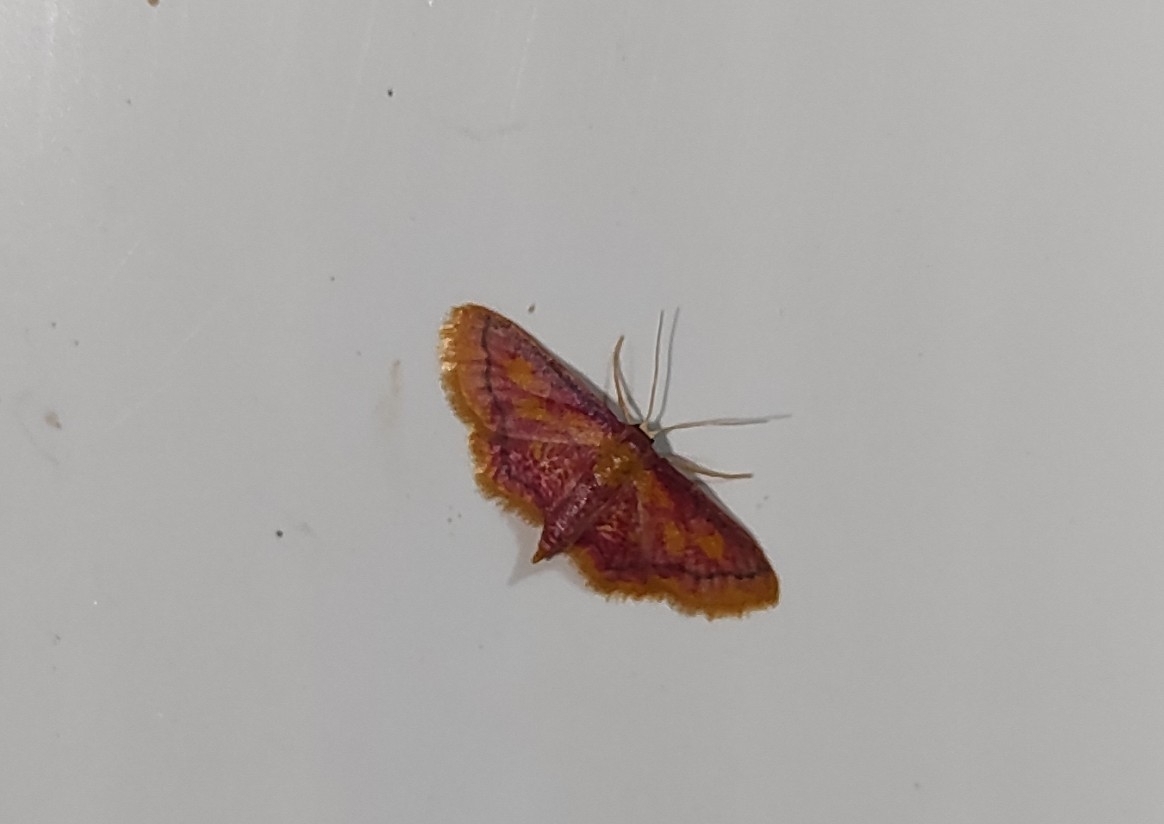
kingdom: Animalia
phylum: Arthropoda
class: Insecta
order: Lepidoptera
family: Geometridae
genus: Idaea
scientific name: Idaea muricata
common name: Purple-bordered gold
